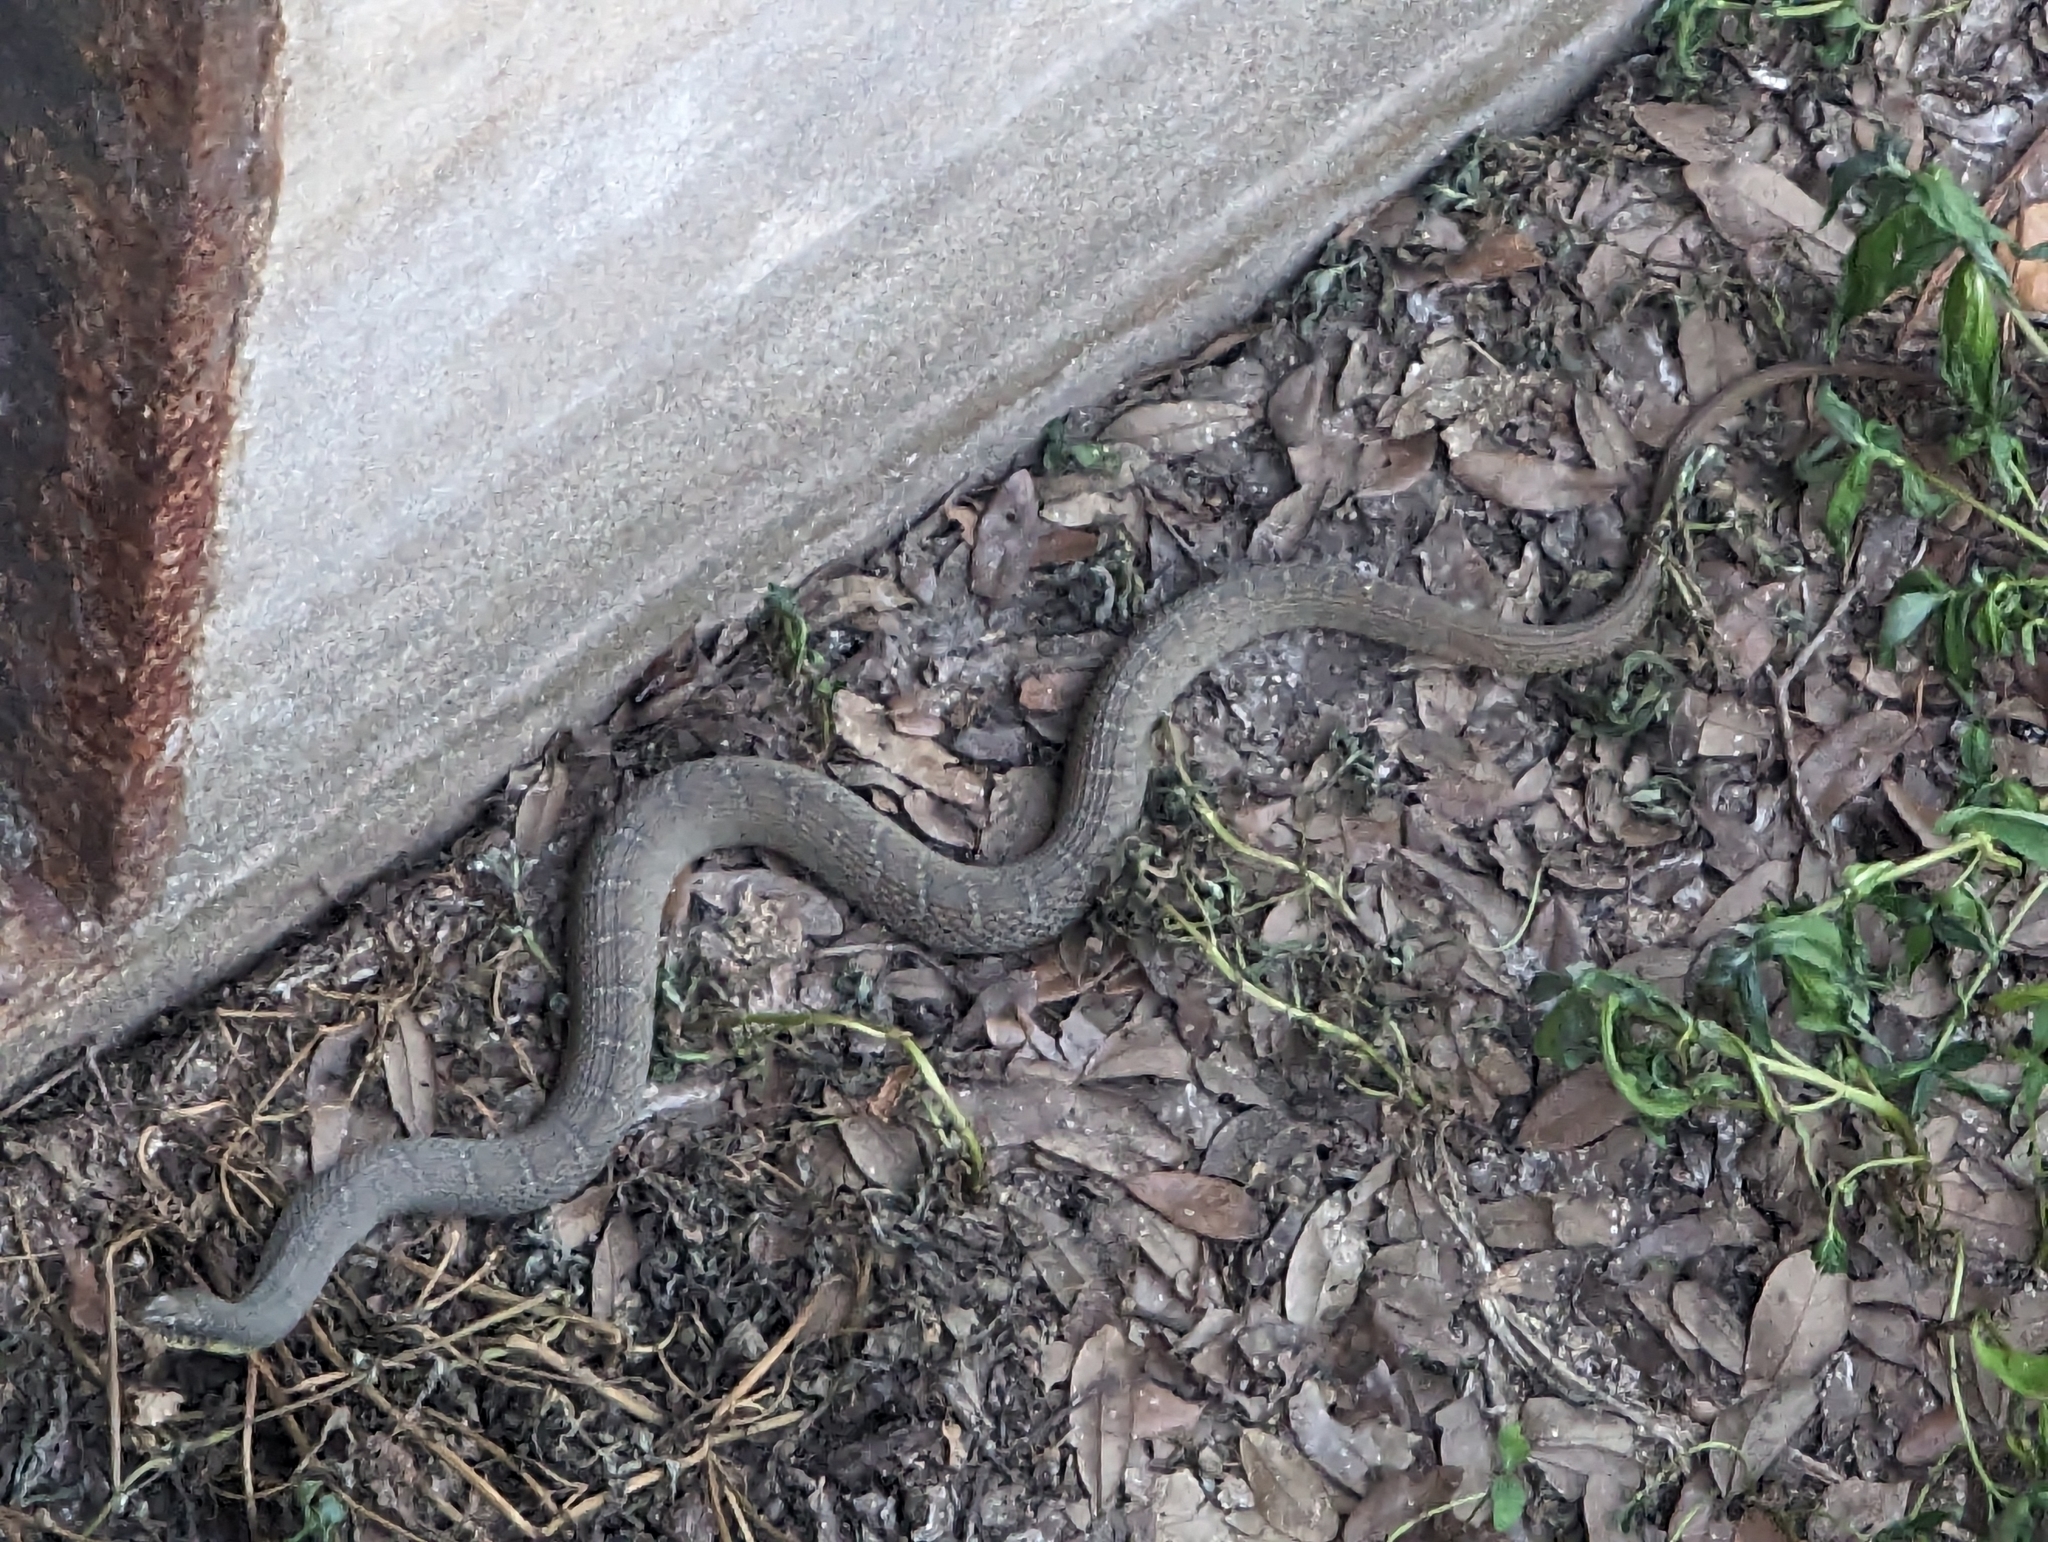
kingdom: Animalia
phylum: Chordata
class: Squamata
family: Colubridae
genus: Nerodia
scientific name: Nerodia erythrogaster
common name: Plainbelly water snake
